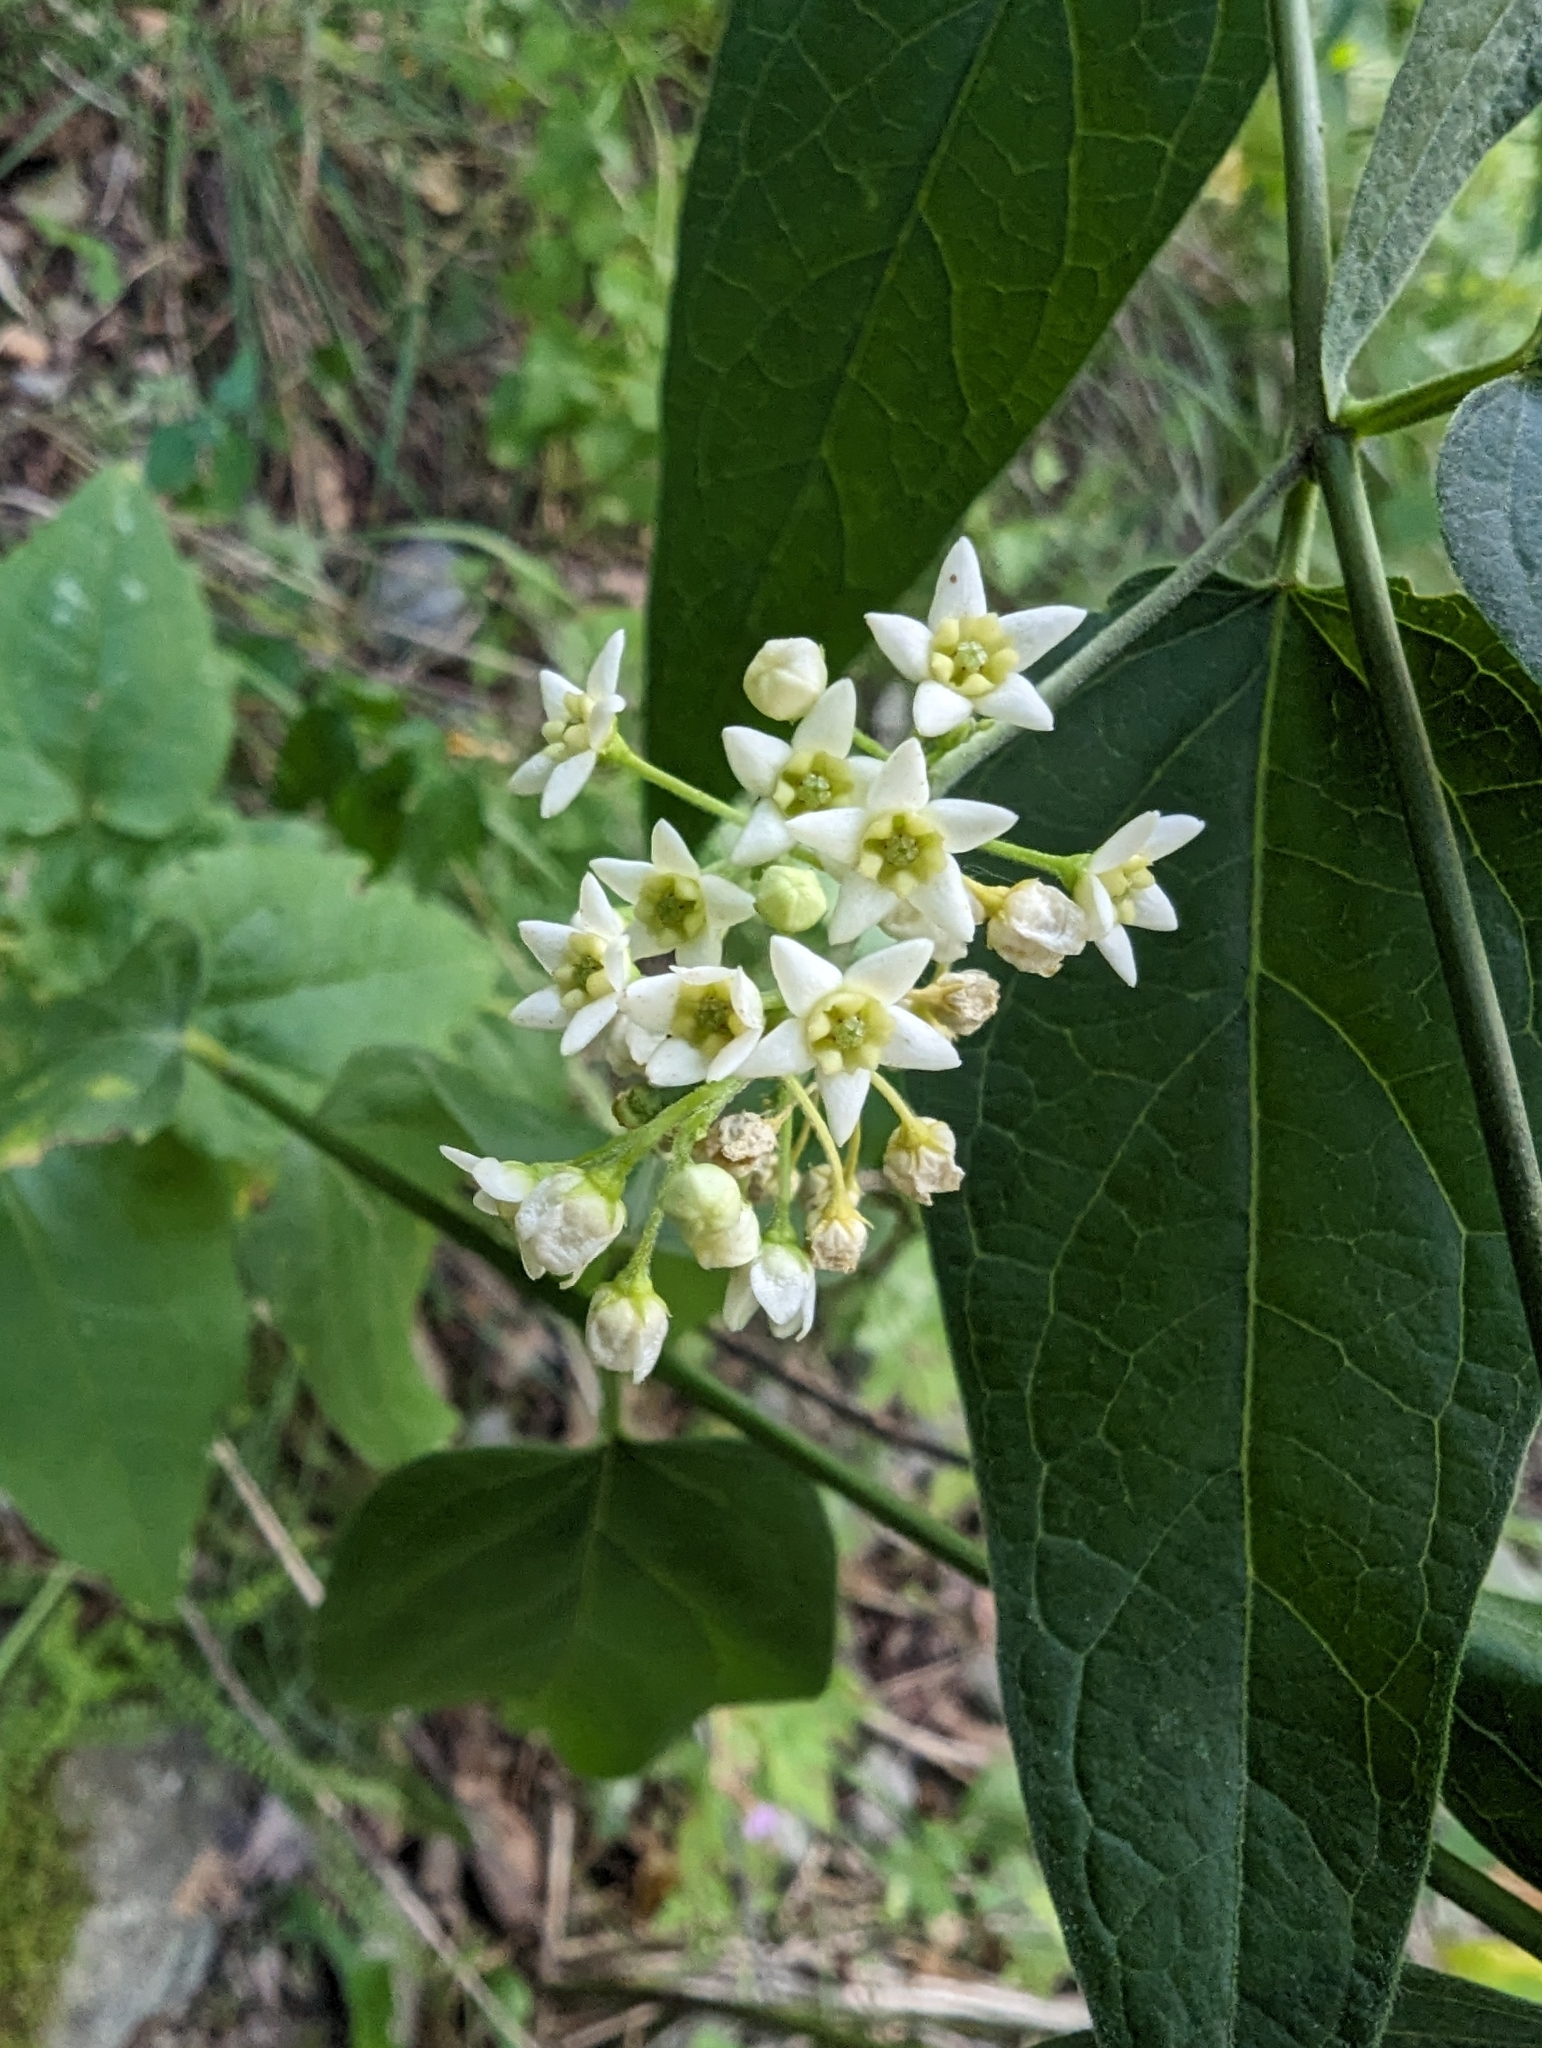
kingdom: Plantae
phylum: Tracheophyta
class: Magnoliopsida
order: Gentianales
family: Apocynaceae
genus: Vincetoxicum
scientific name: Vincetoxicum hirundinaria
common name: White swallowwort
